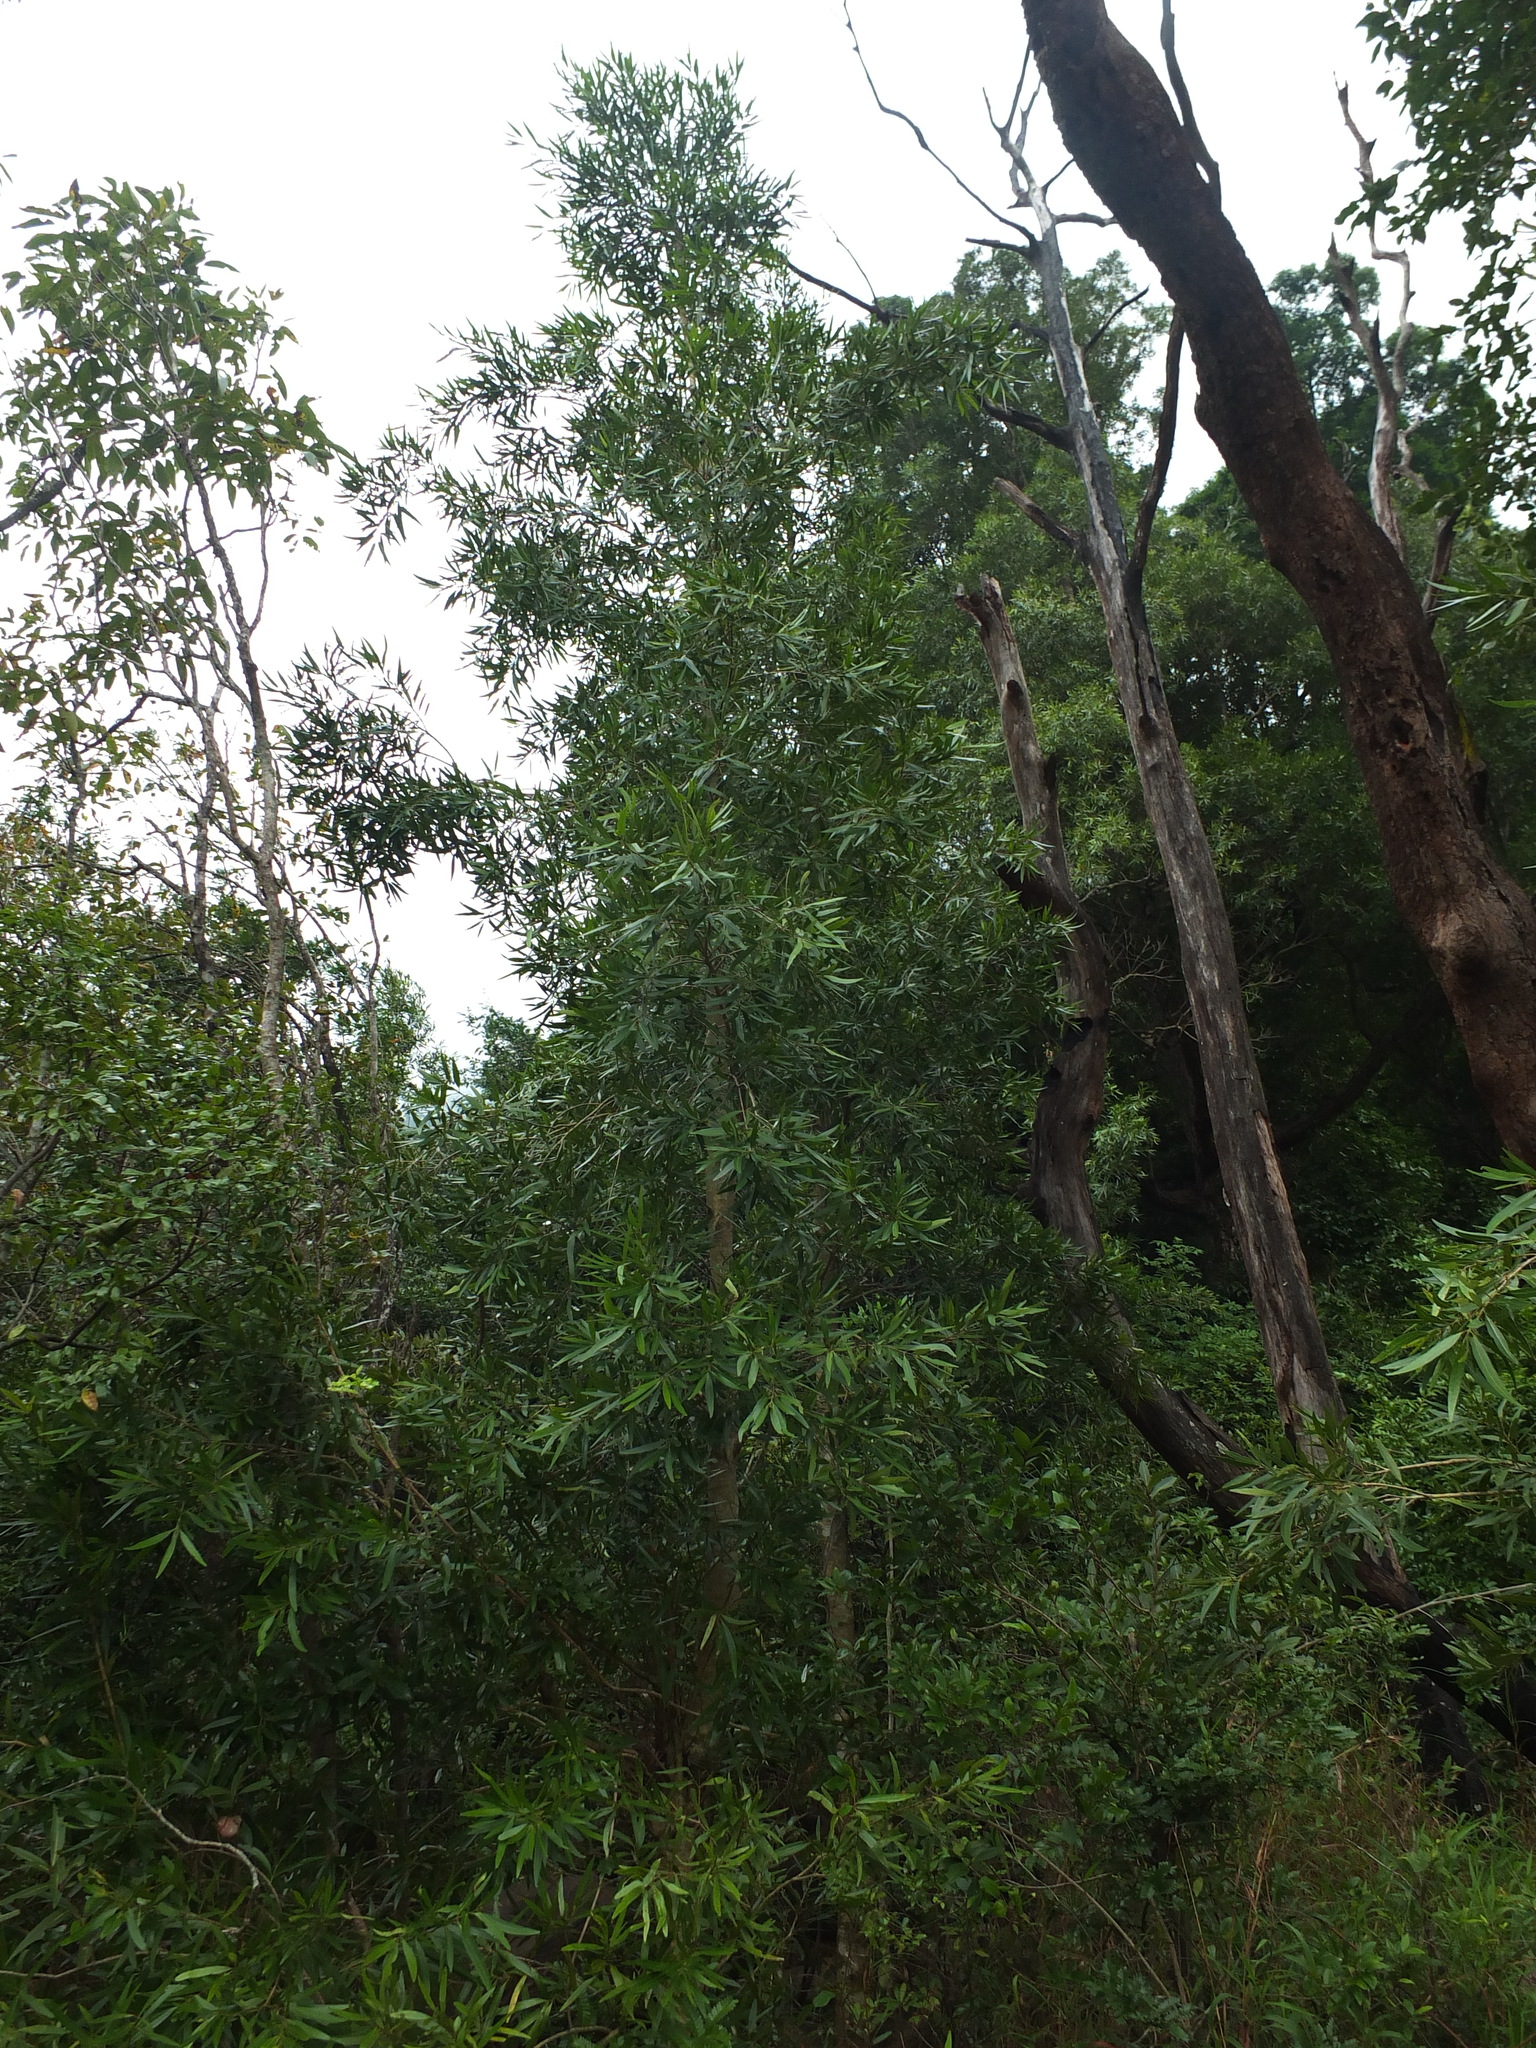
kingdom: Plantae
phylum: Tracheophyta
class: Magnoliopsida
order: Malpighiales
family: Calophyllaceae
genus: Calophyllum
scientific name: Calophyllum pascalianum
